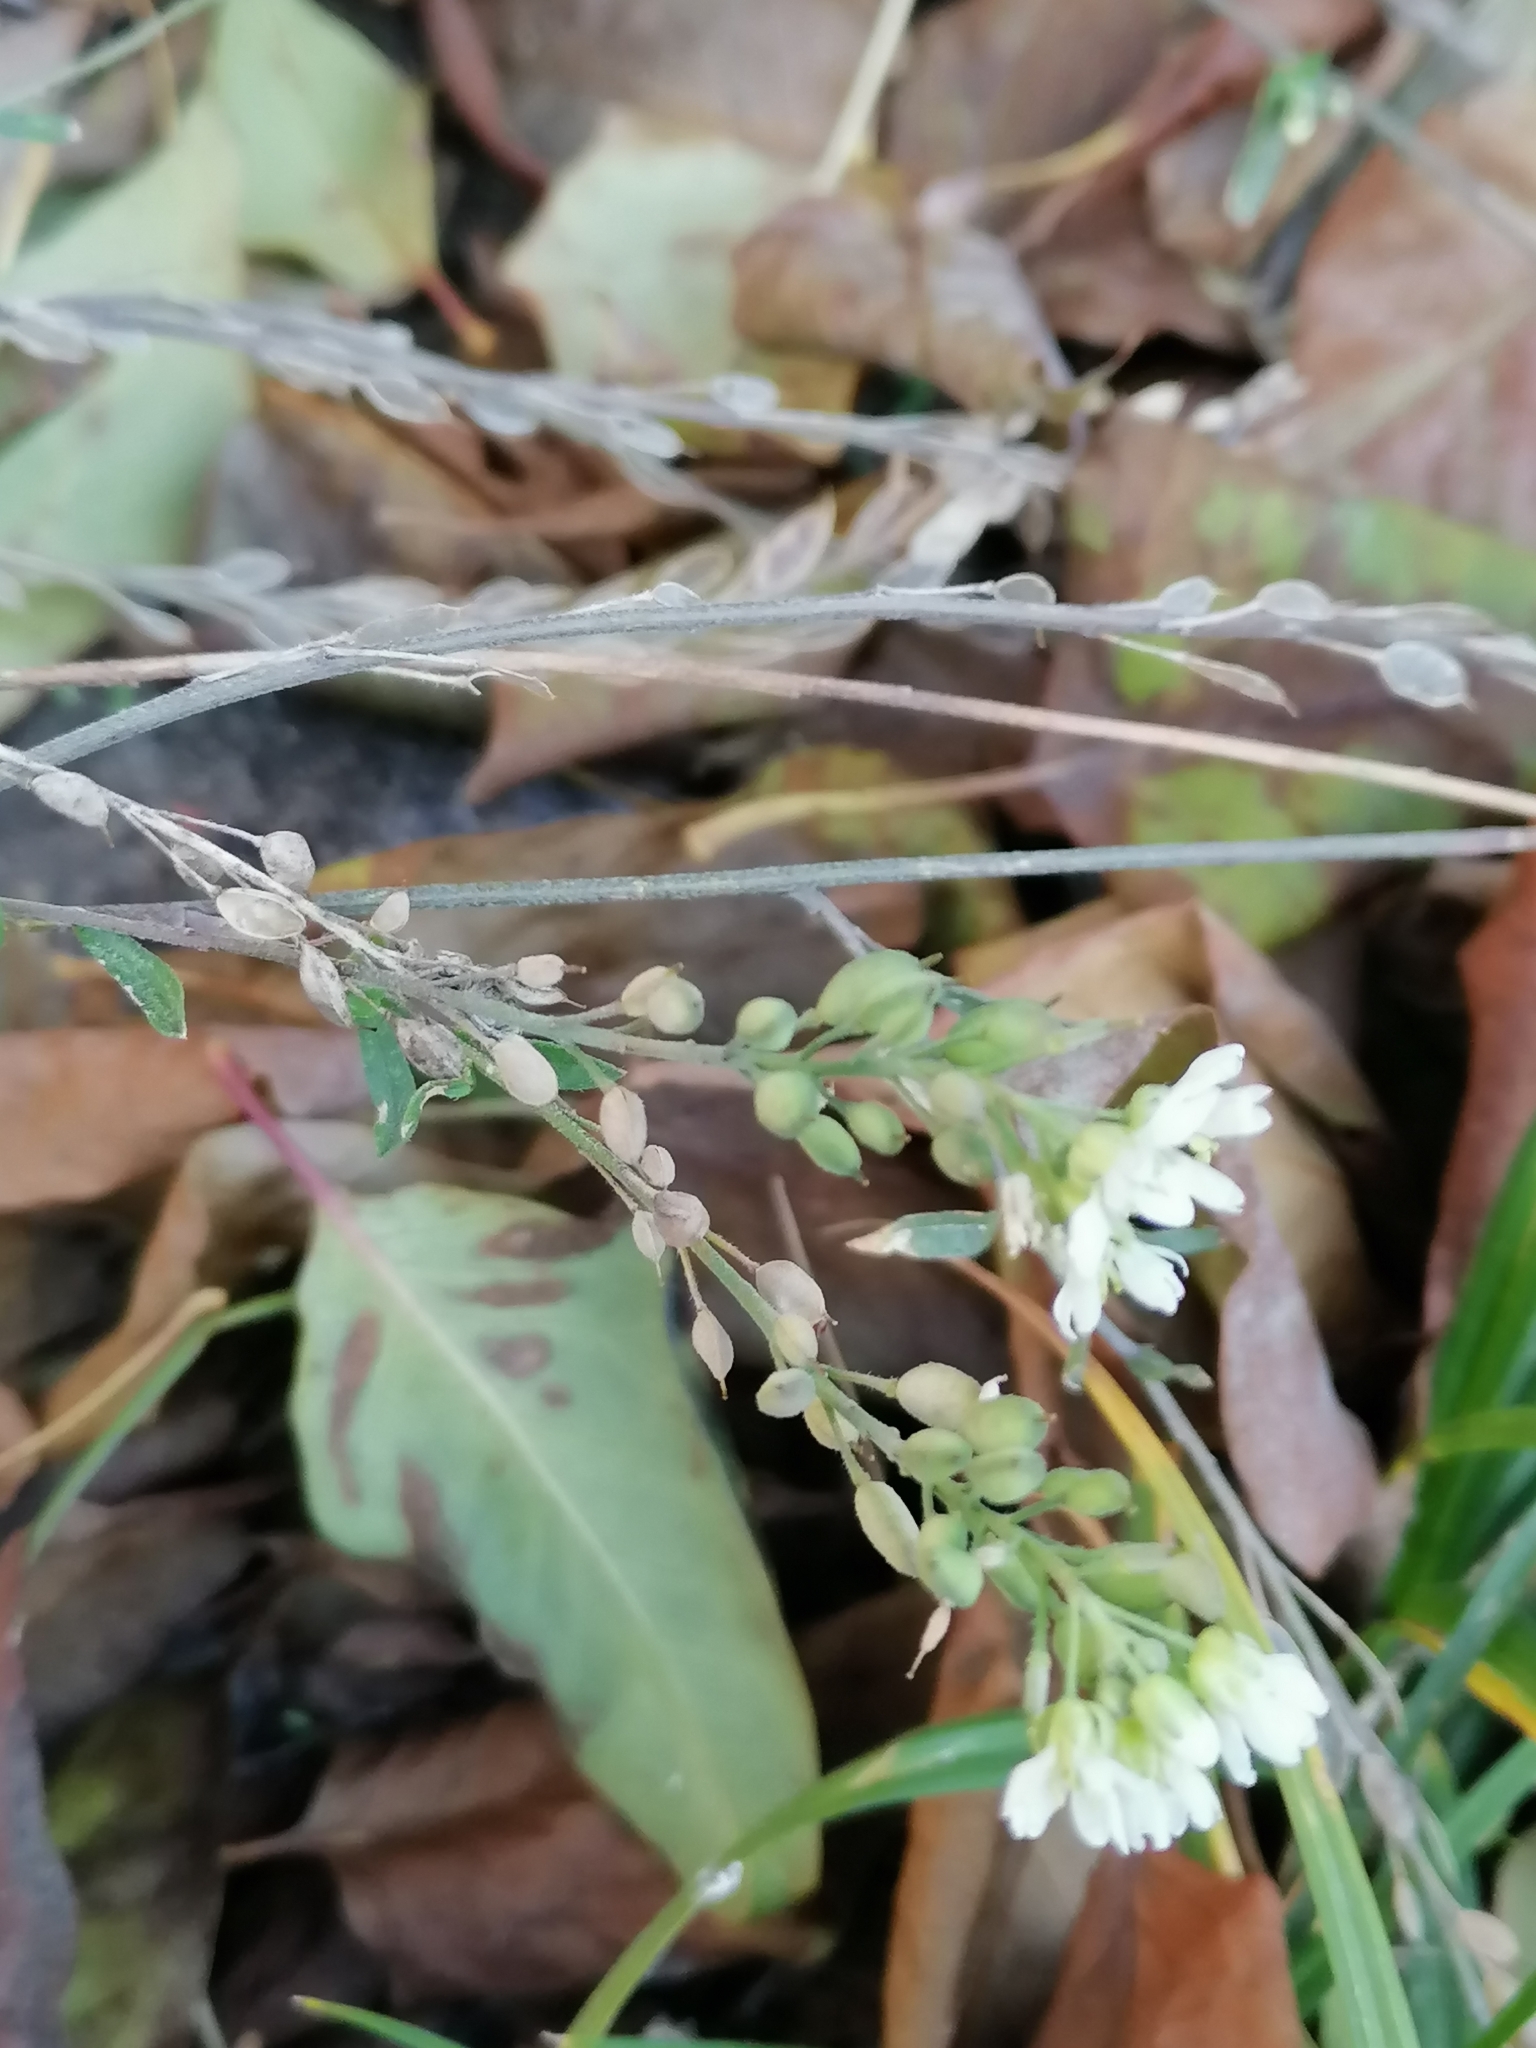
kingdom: Plantae
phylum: Tracheophyta
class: Magnoliopsida
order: Brassicales
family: Brassicaceae
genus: Berteroa
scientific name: Berteroa incana
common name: Hoary alison
